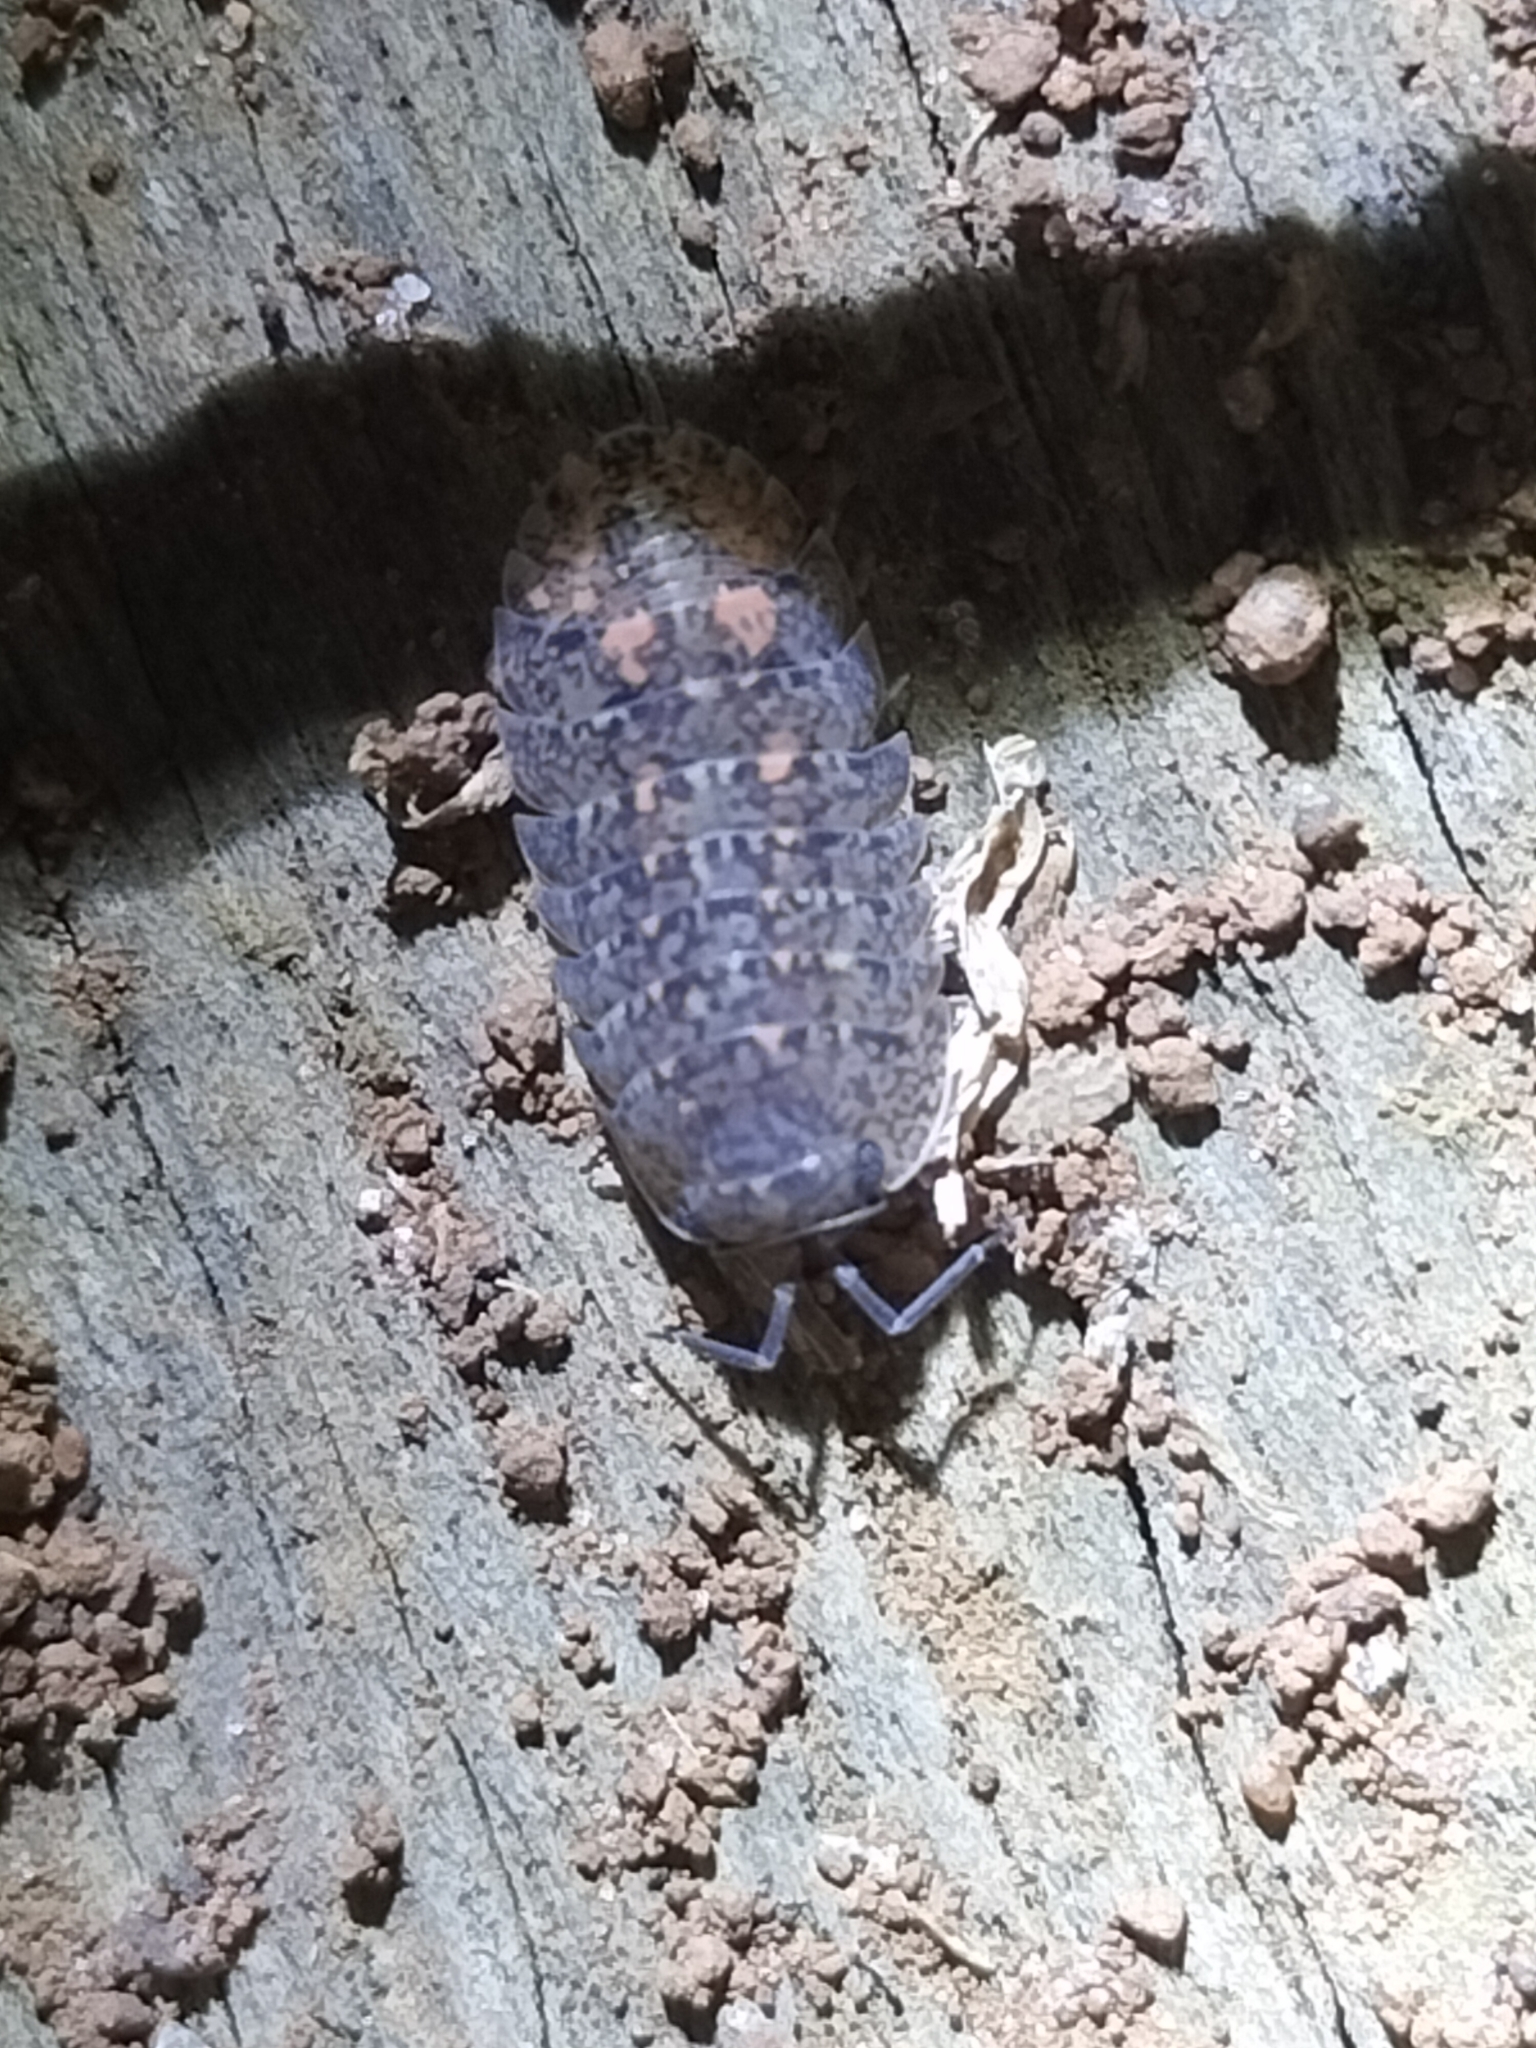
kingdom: Animalia
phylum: Arthropoda
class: Malacostraca
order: Isopoda
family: Armadillidae
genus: Cubaris
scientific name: Cubaris marmorata
